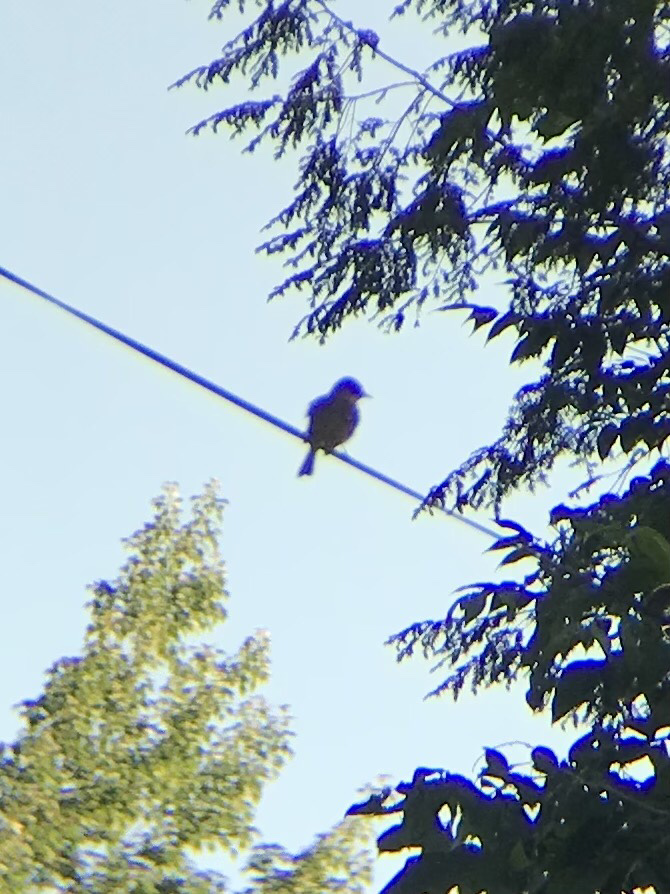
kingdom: Animalia
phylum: Chordata
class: Aves
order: Passeriformes
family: Tyrannidae
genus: Sayornis
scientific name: Sayornis phoebe
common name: Eastern phoebe
